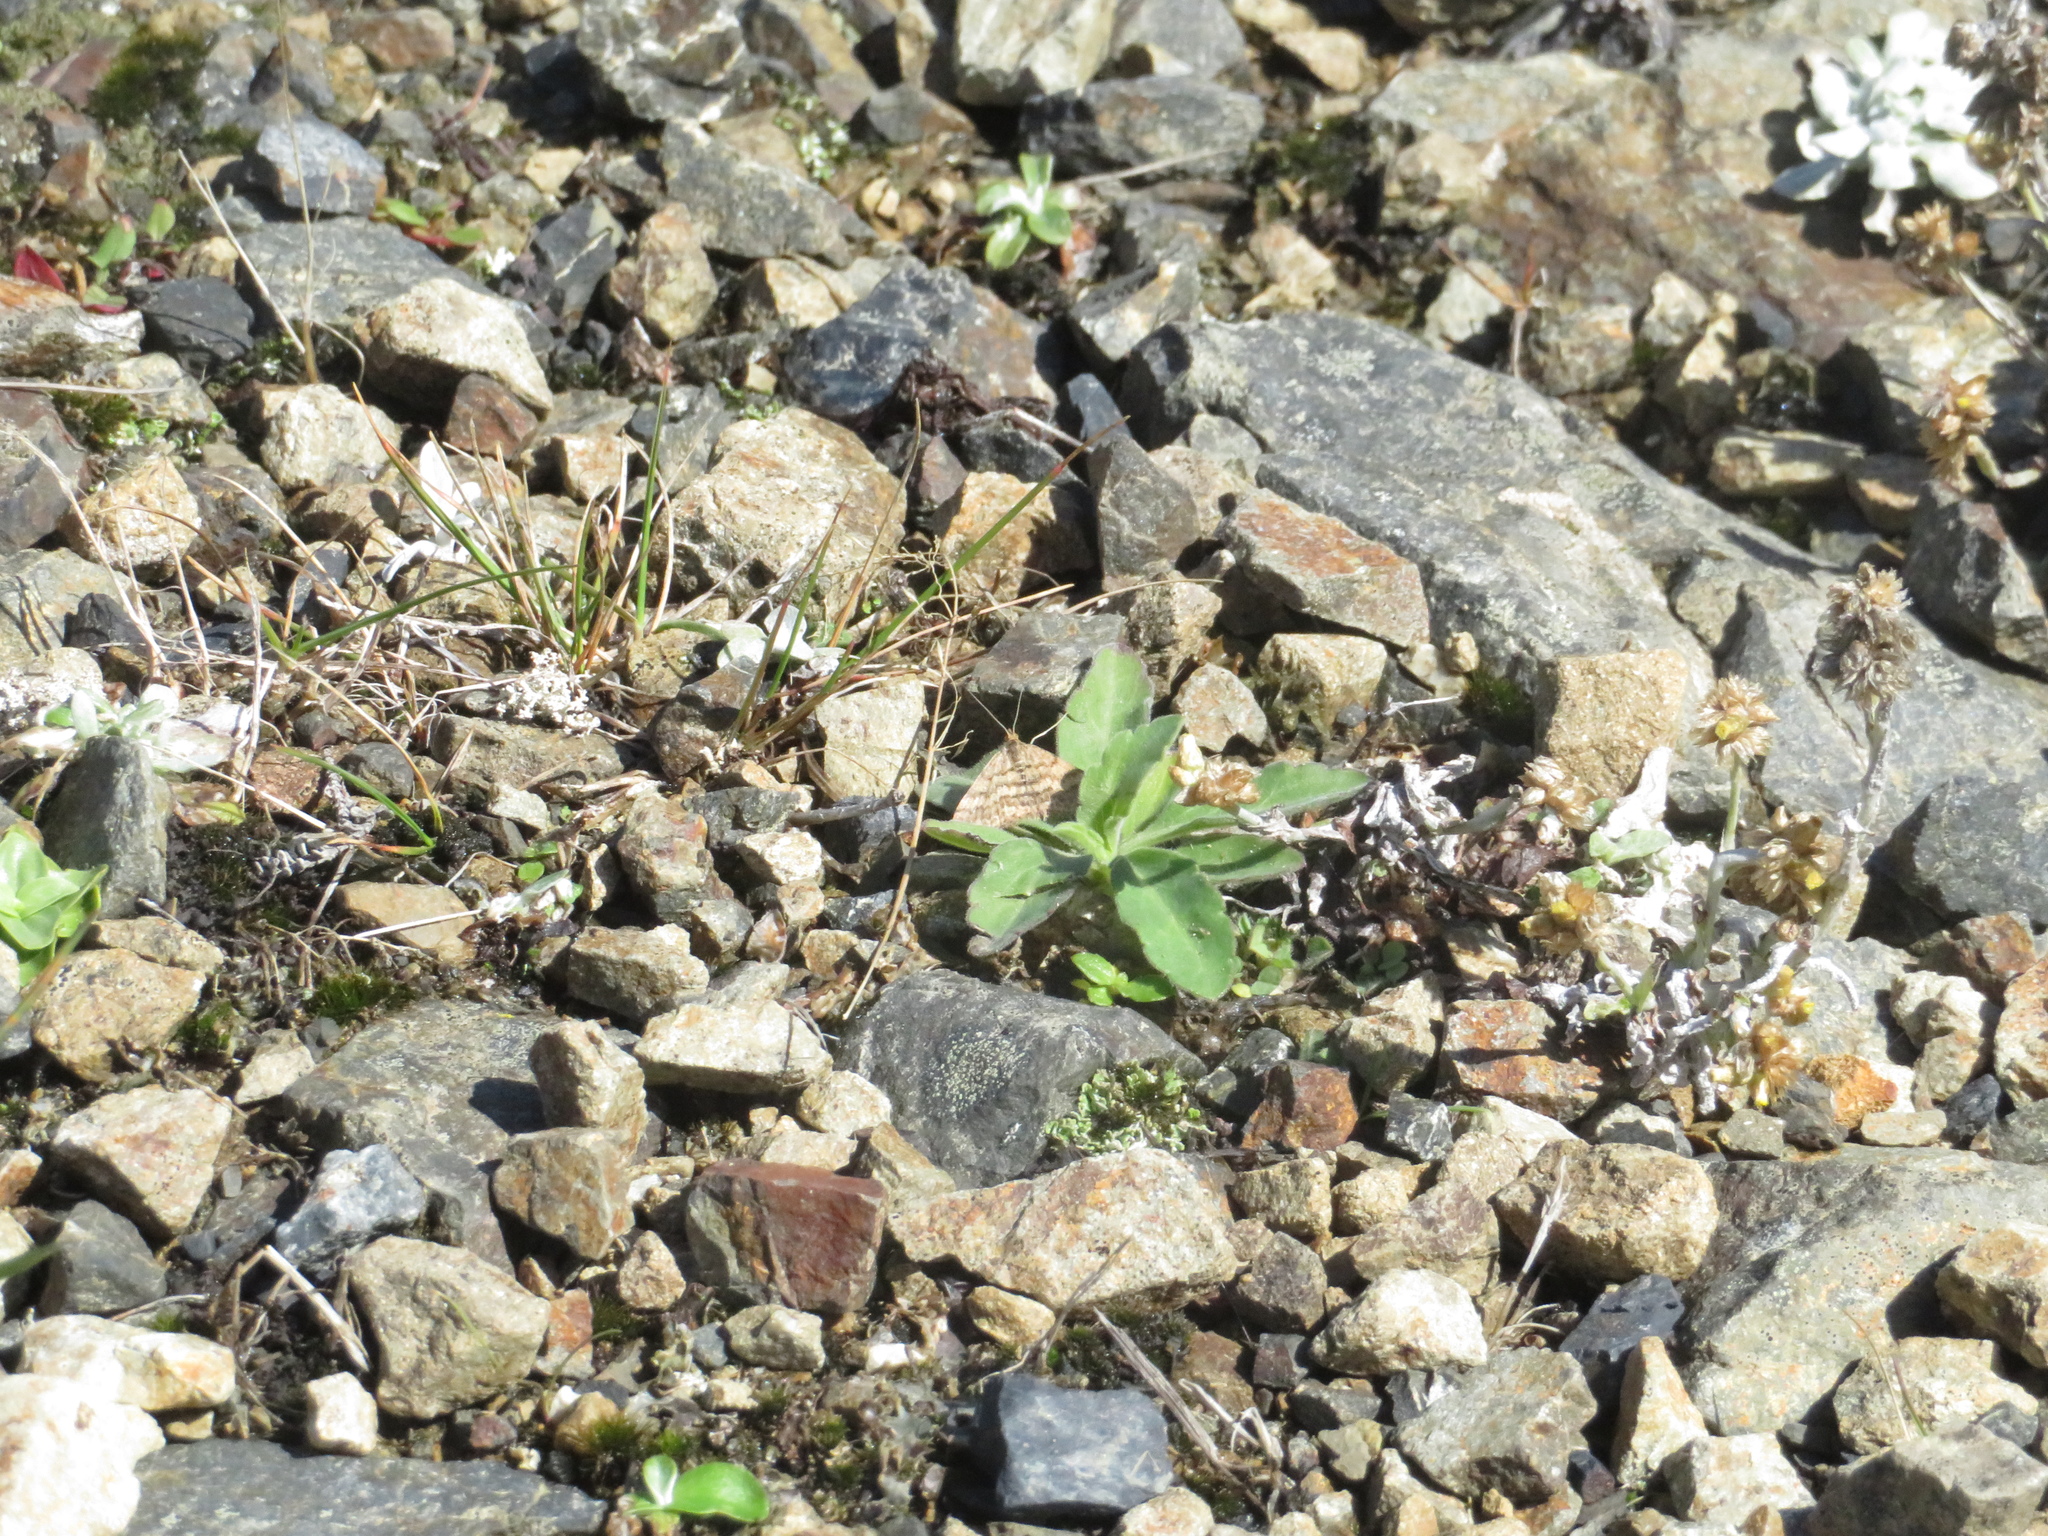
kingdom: Animalia
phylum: Arthropoda
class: Insecta
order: Lepidoptera
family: Geometridae
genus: Scopula
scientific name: Scopula rubraria
